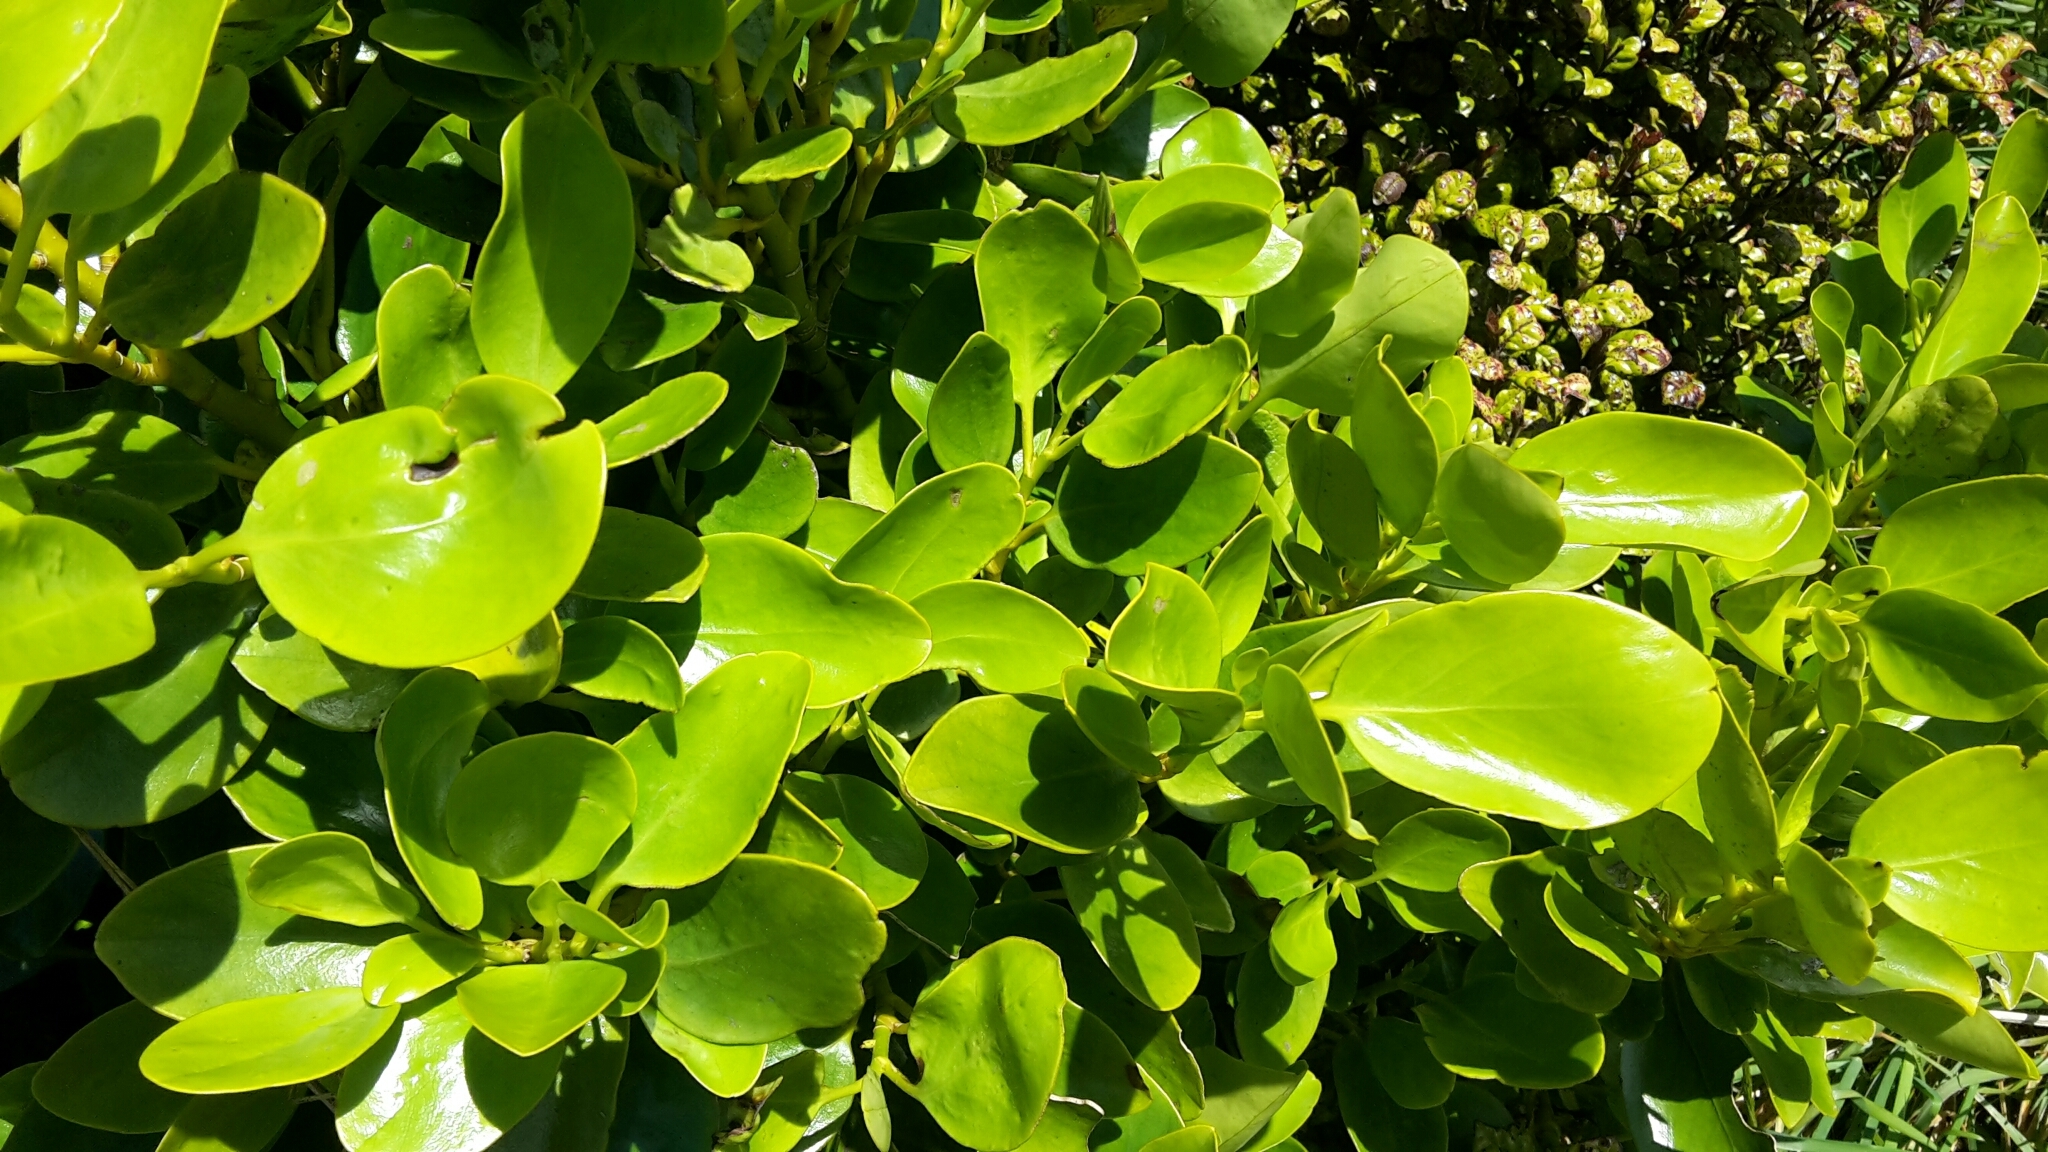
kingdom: Plantae
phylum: Tracheophyta
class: Magnoliopsida
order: Apiales
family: Griseliniaceae
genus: Griselinia
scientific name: Griselinia littoralis
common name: New zealand broadleaf
